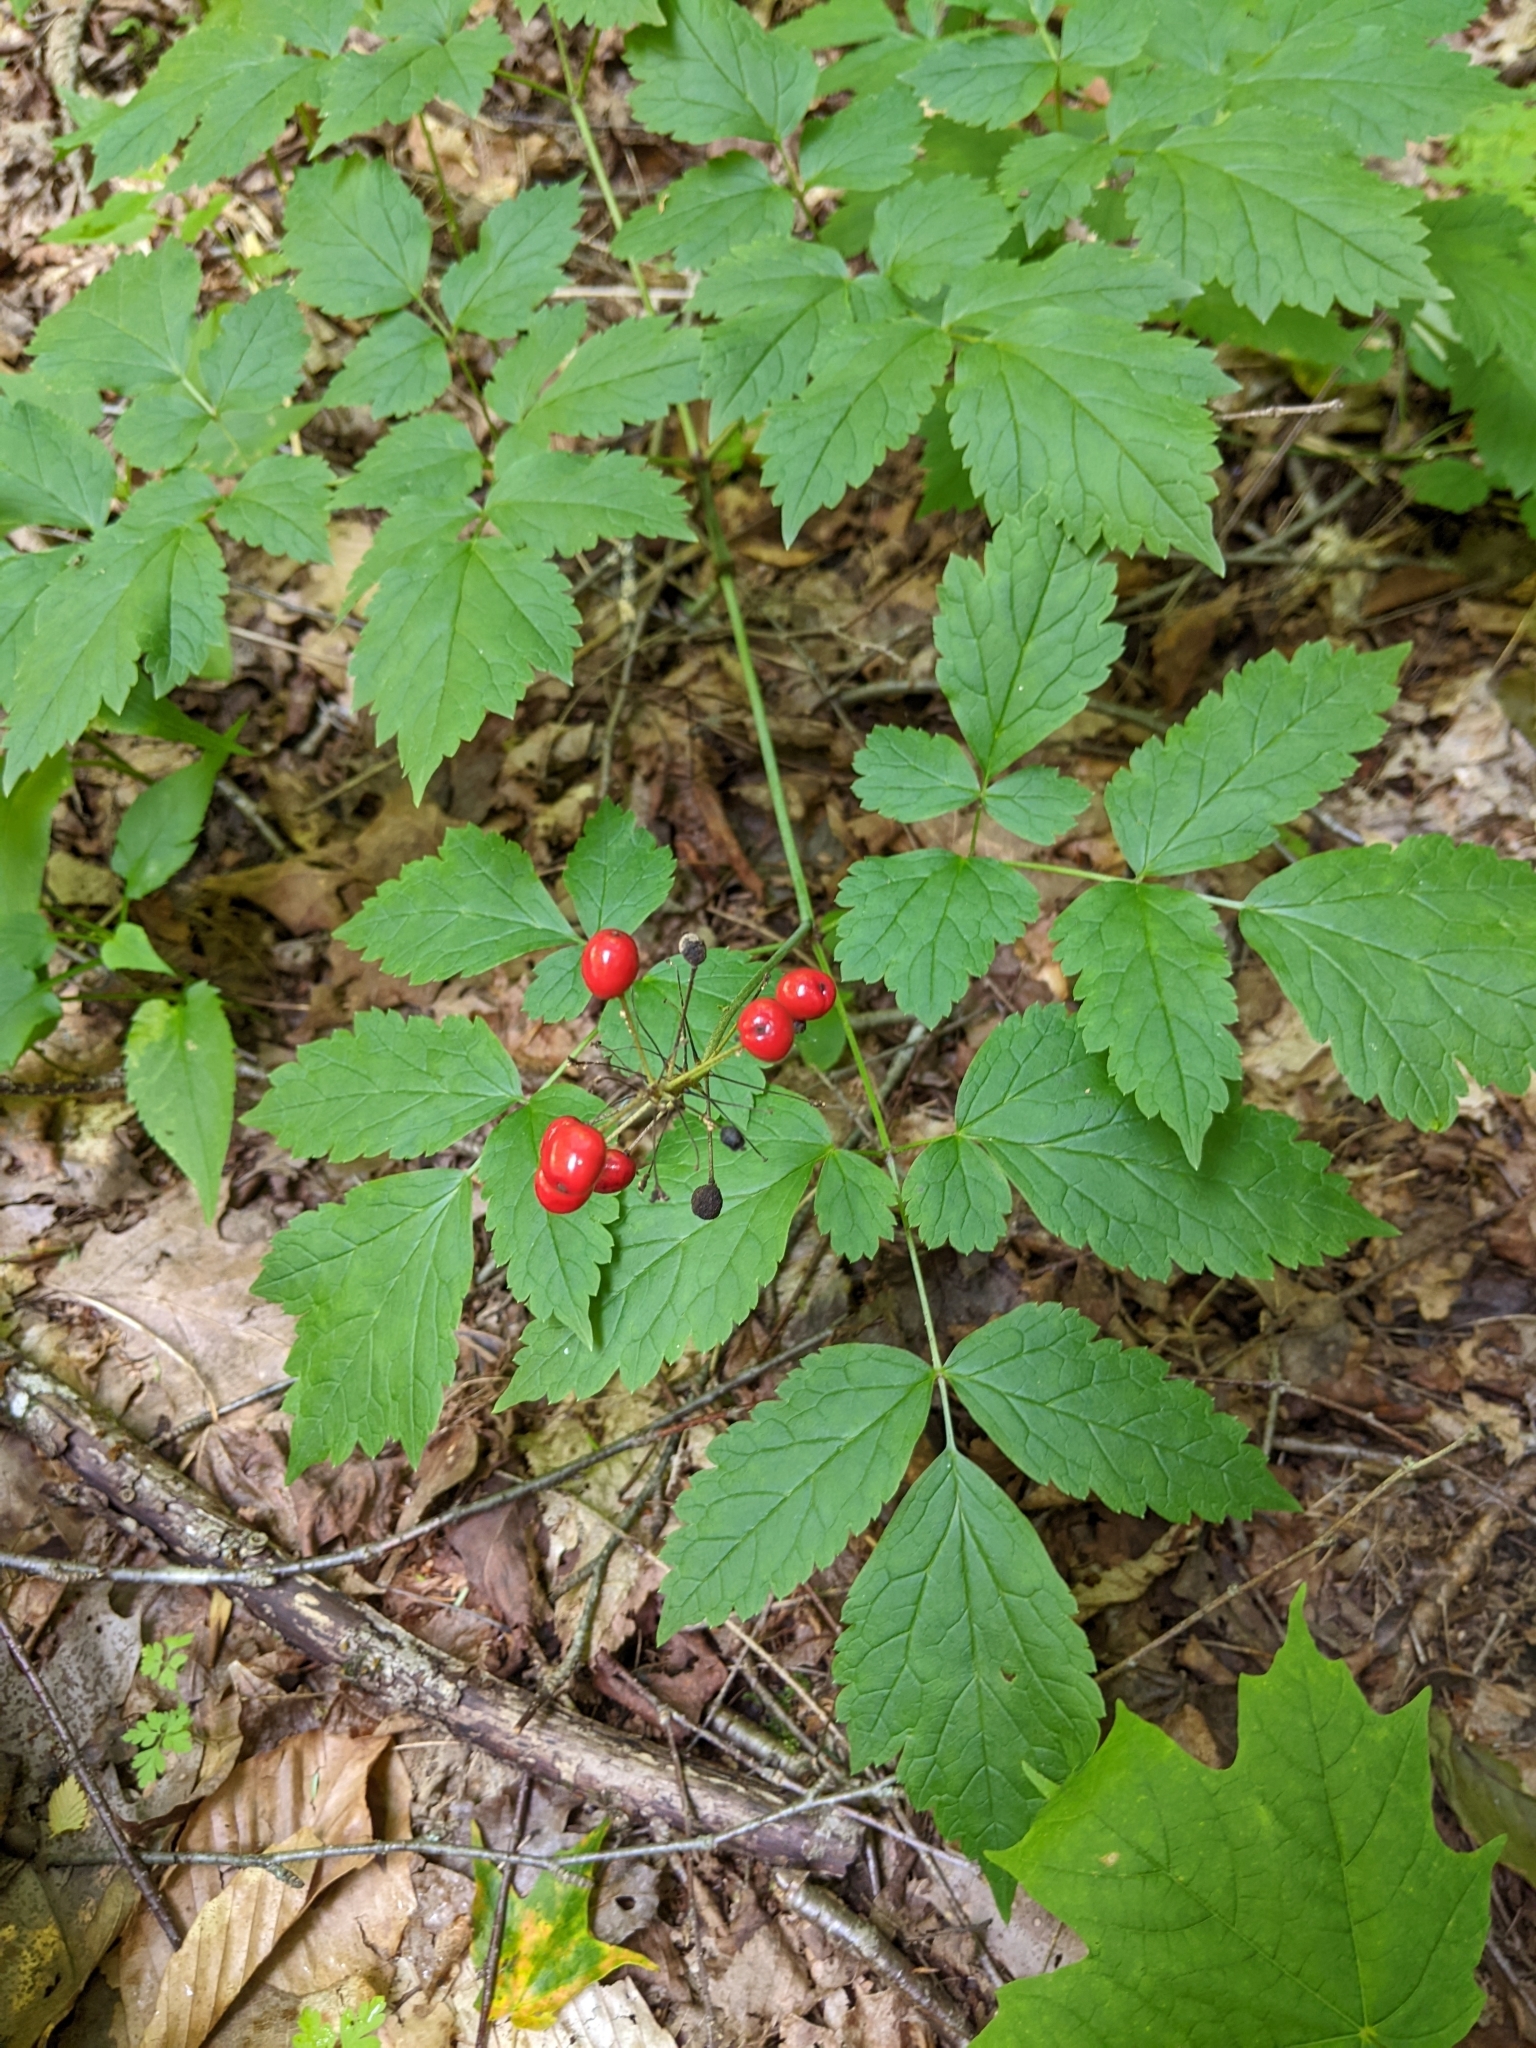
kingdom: Plantae
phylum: Tracheophyta
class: Magnoliopsida
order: Ranunculales
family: Ranunculaceae
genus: Actaea
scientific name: Actaea rubra
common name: Red baneberry
